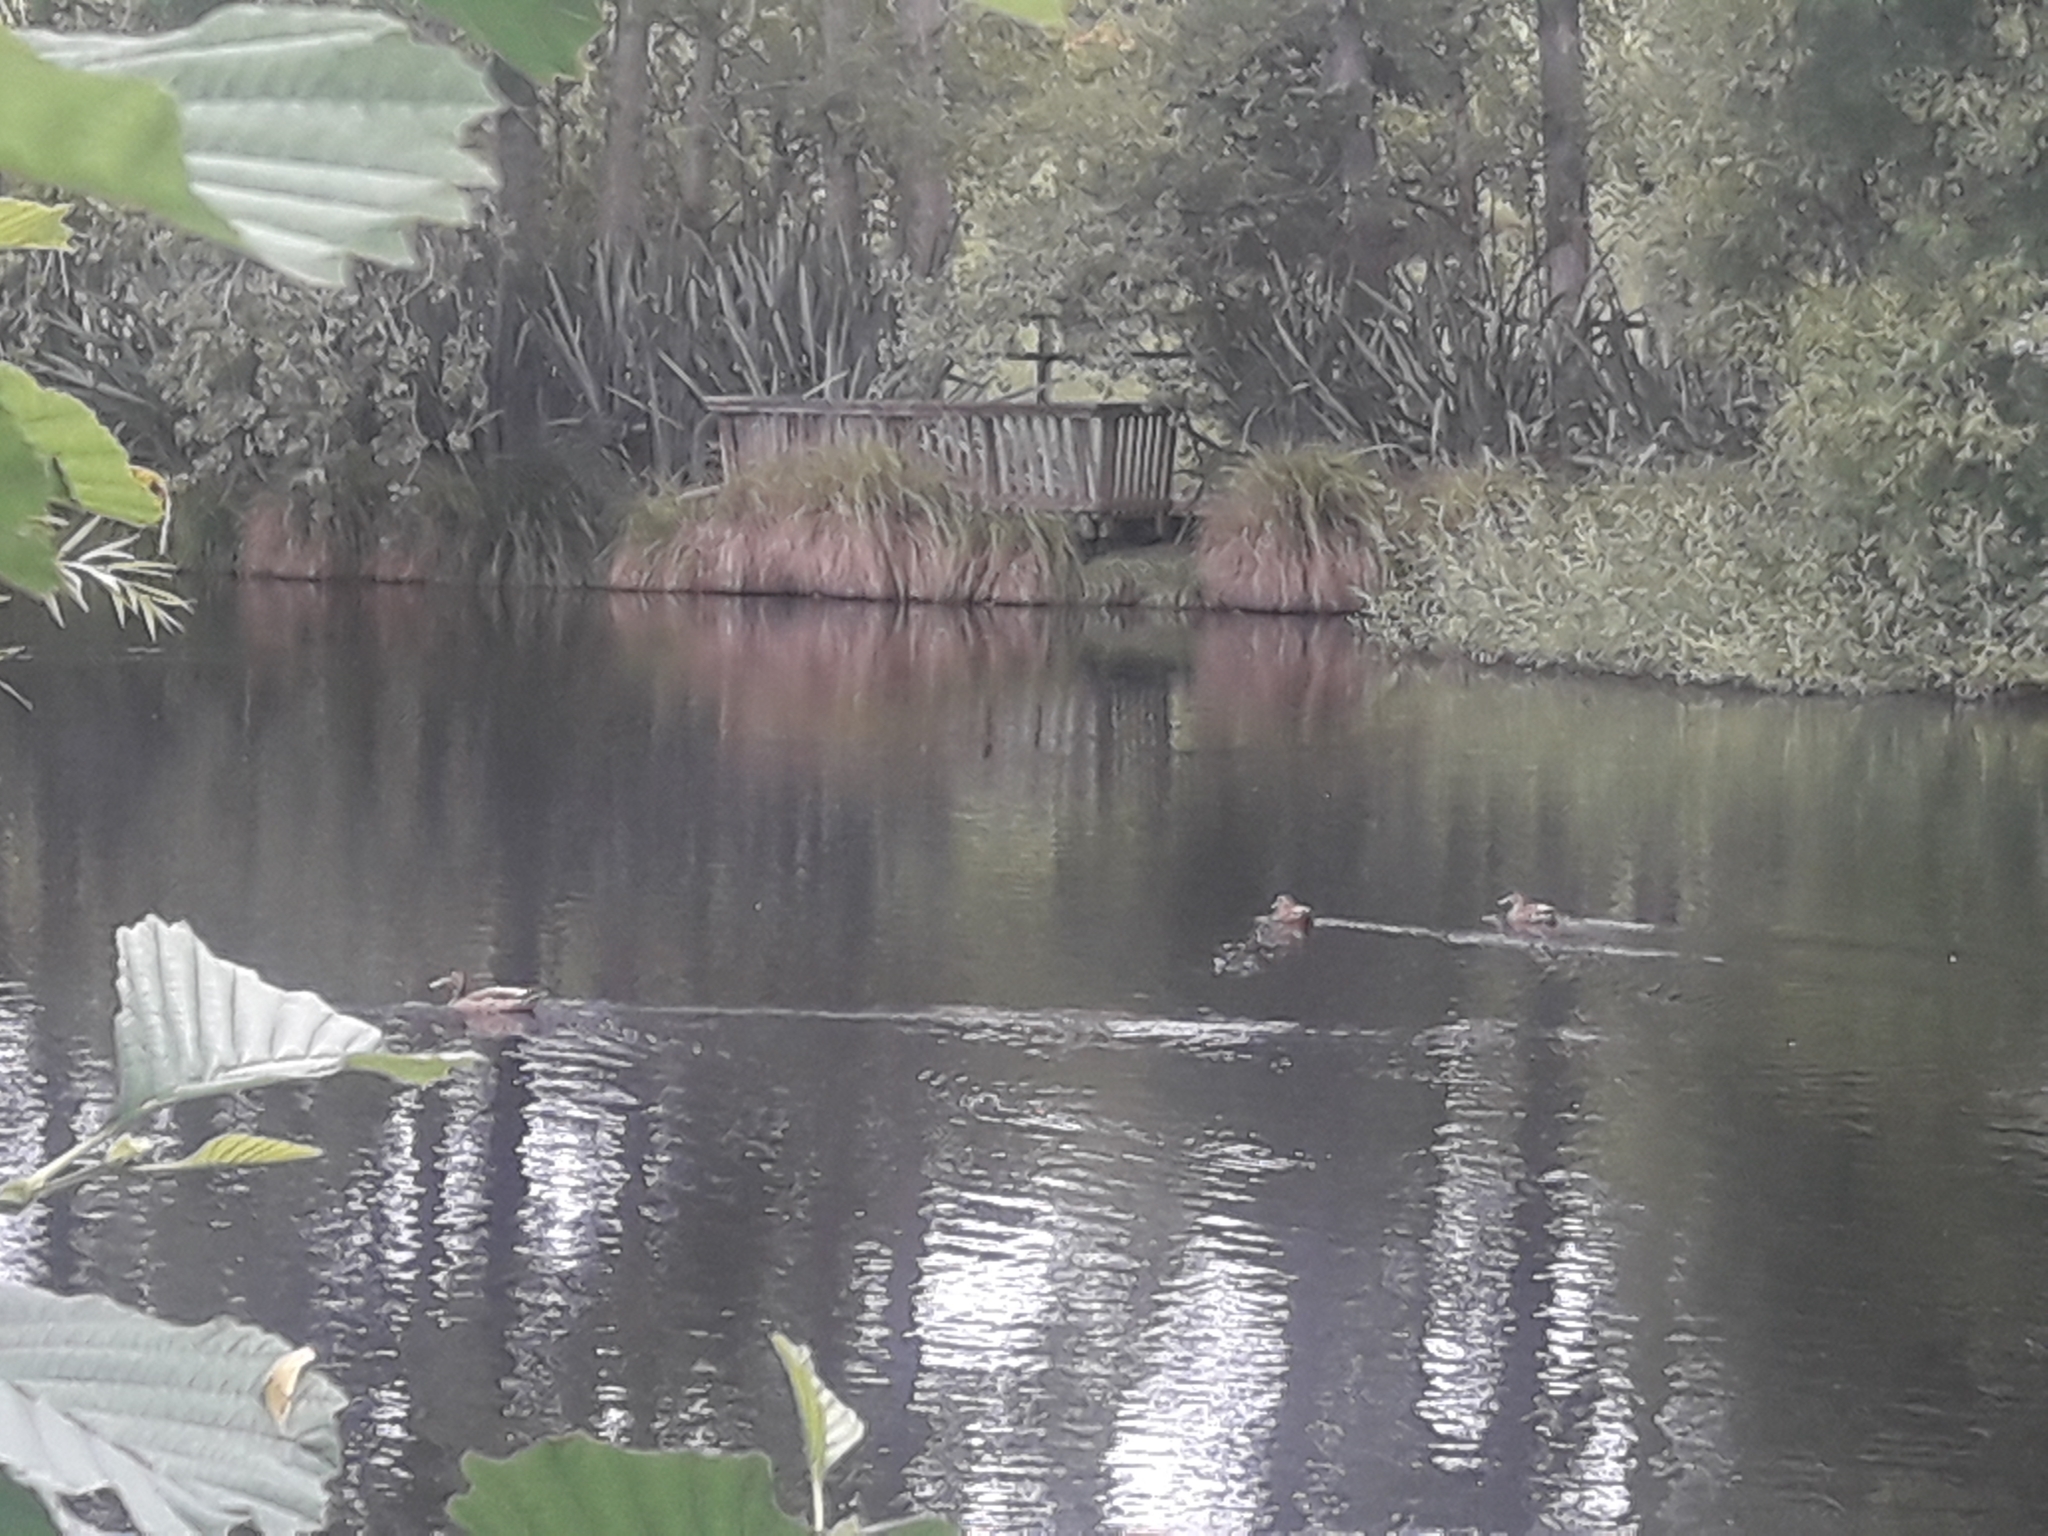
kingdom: Animalia
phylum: Chordata
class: Aves
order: Anseriformes
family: Anatidae
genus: Anas
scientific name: Anas
